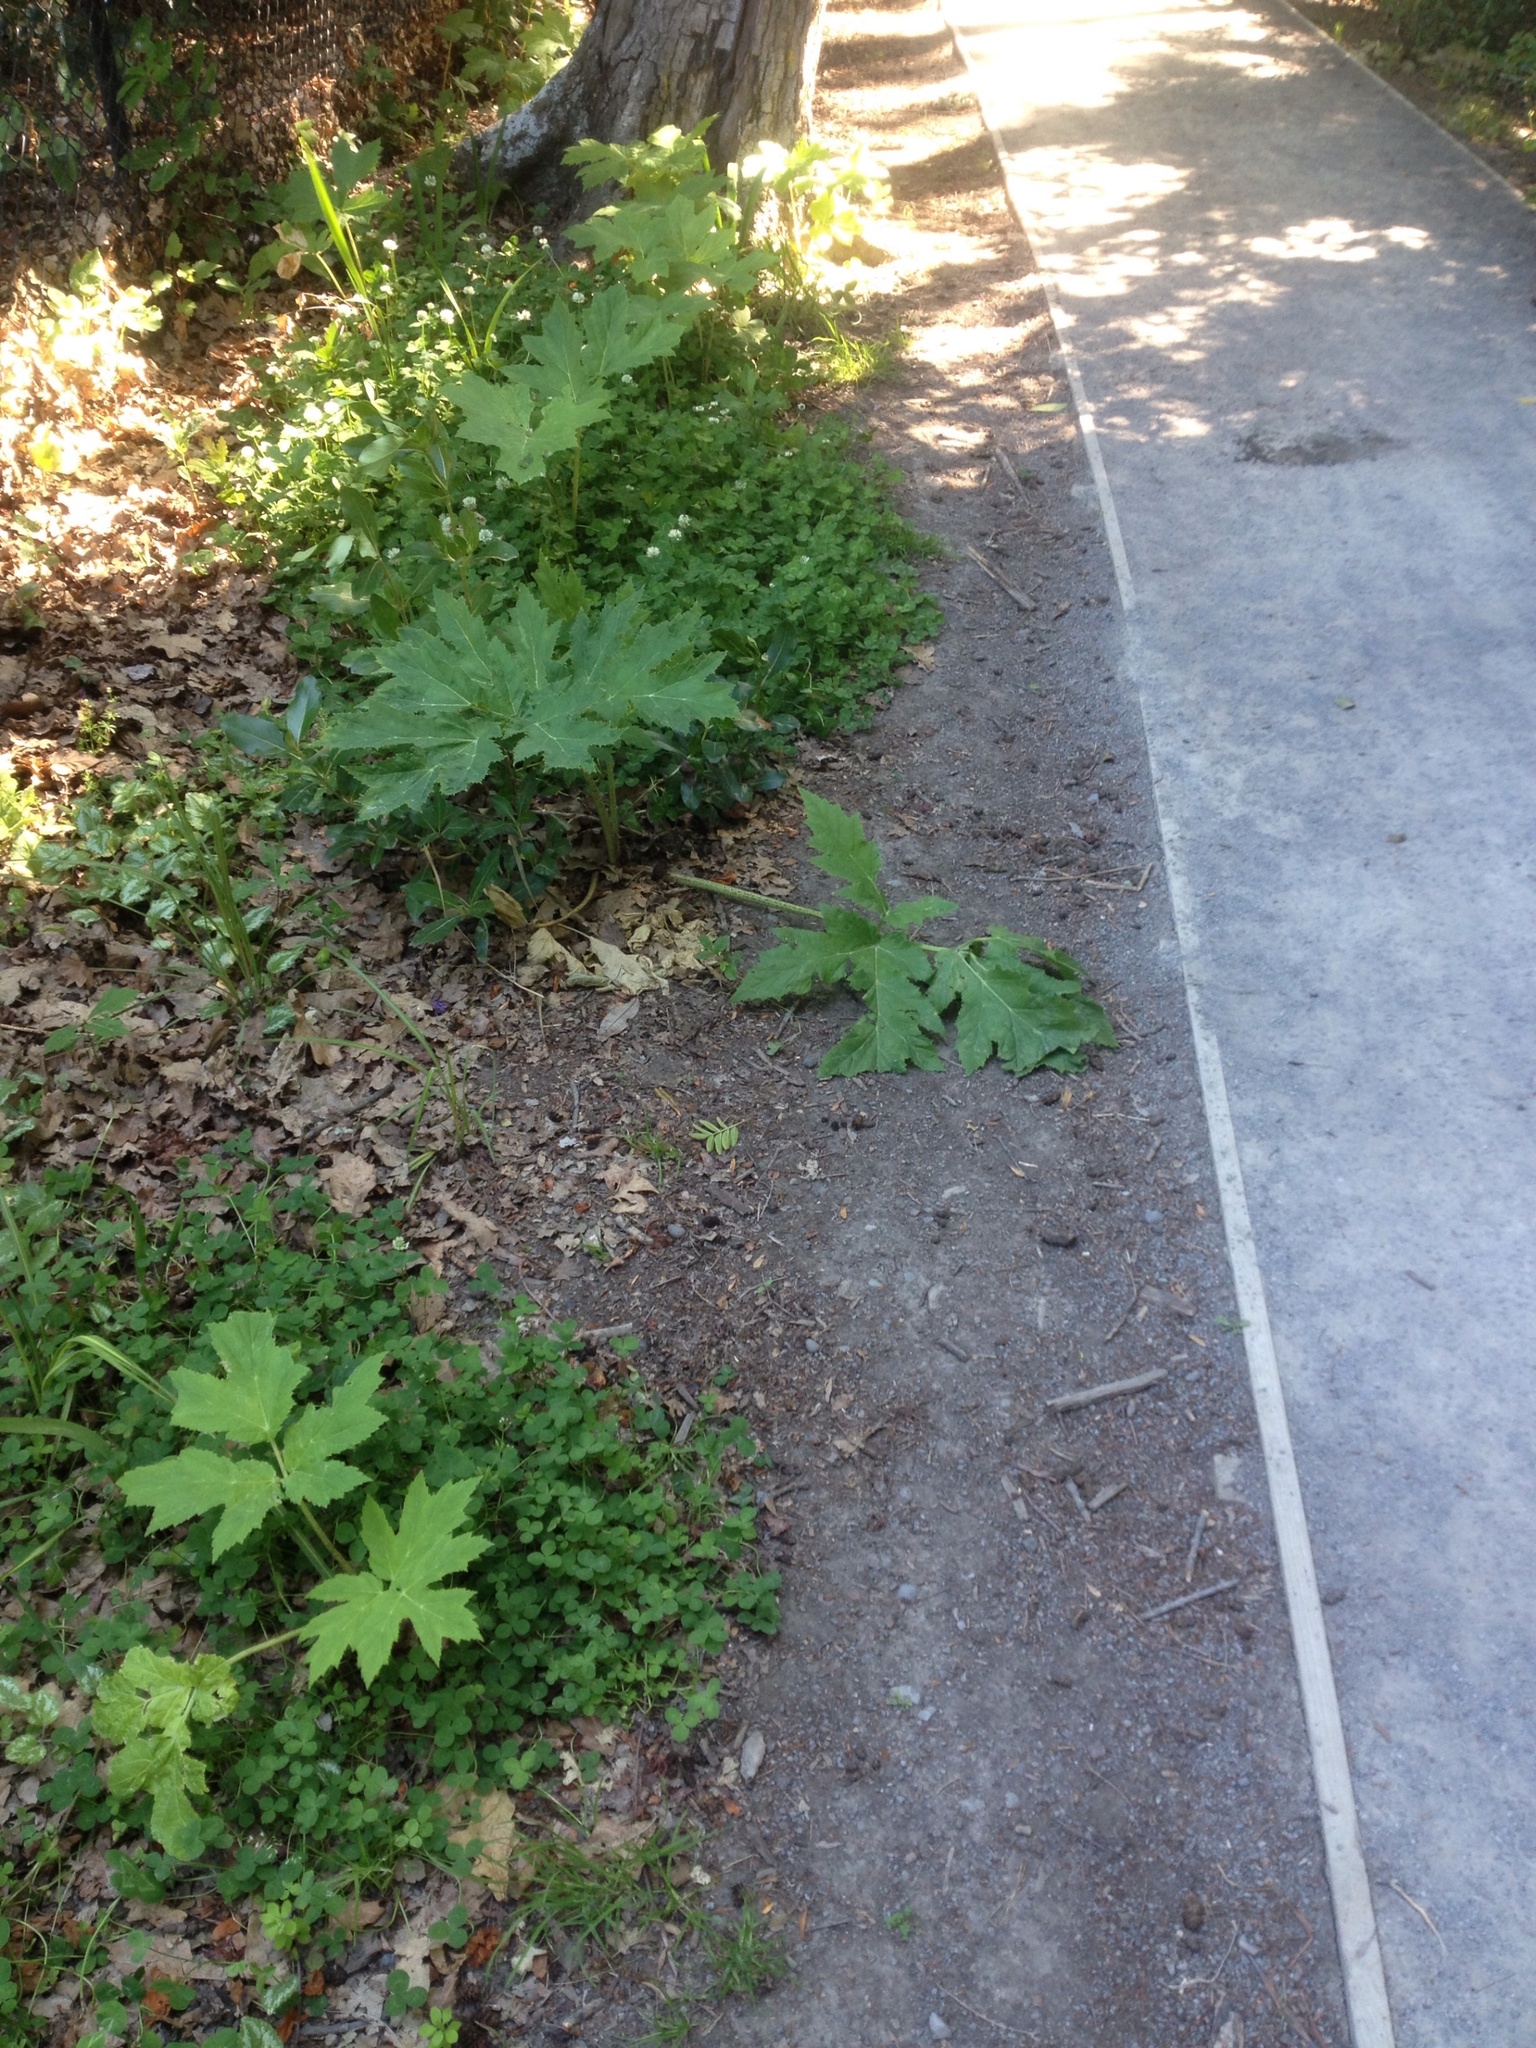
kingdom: Plantae
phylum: Tracheophyta
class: Magnoliopsida
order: Apiales
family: Apiaceae
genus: Heracleum
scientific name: Heracleum mantegazzianum
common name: Giant hogweed
